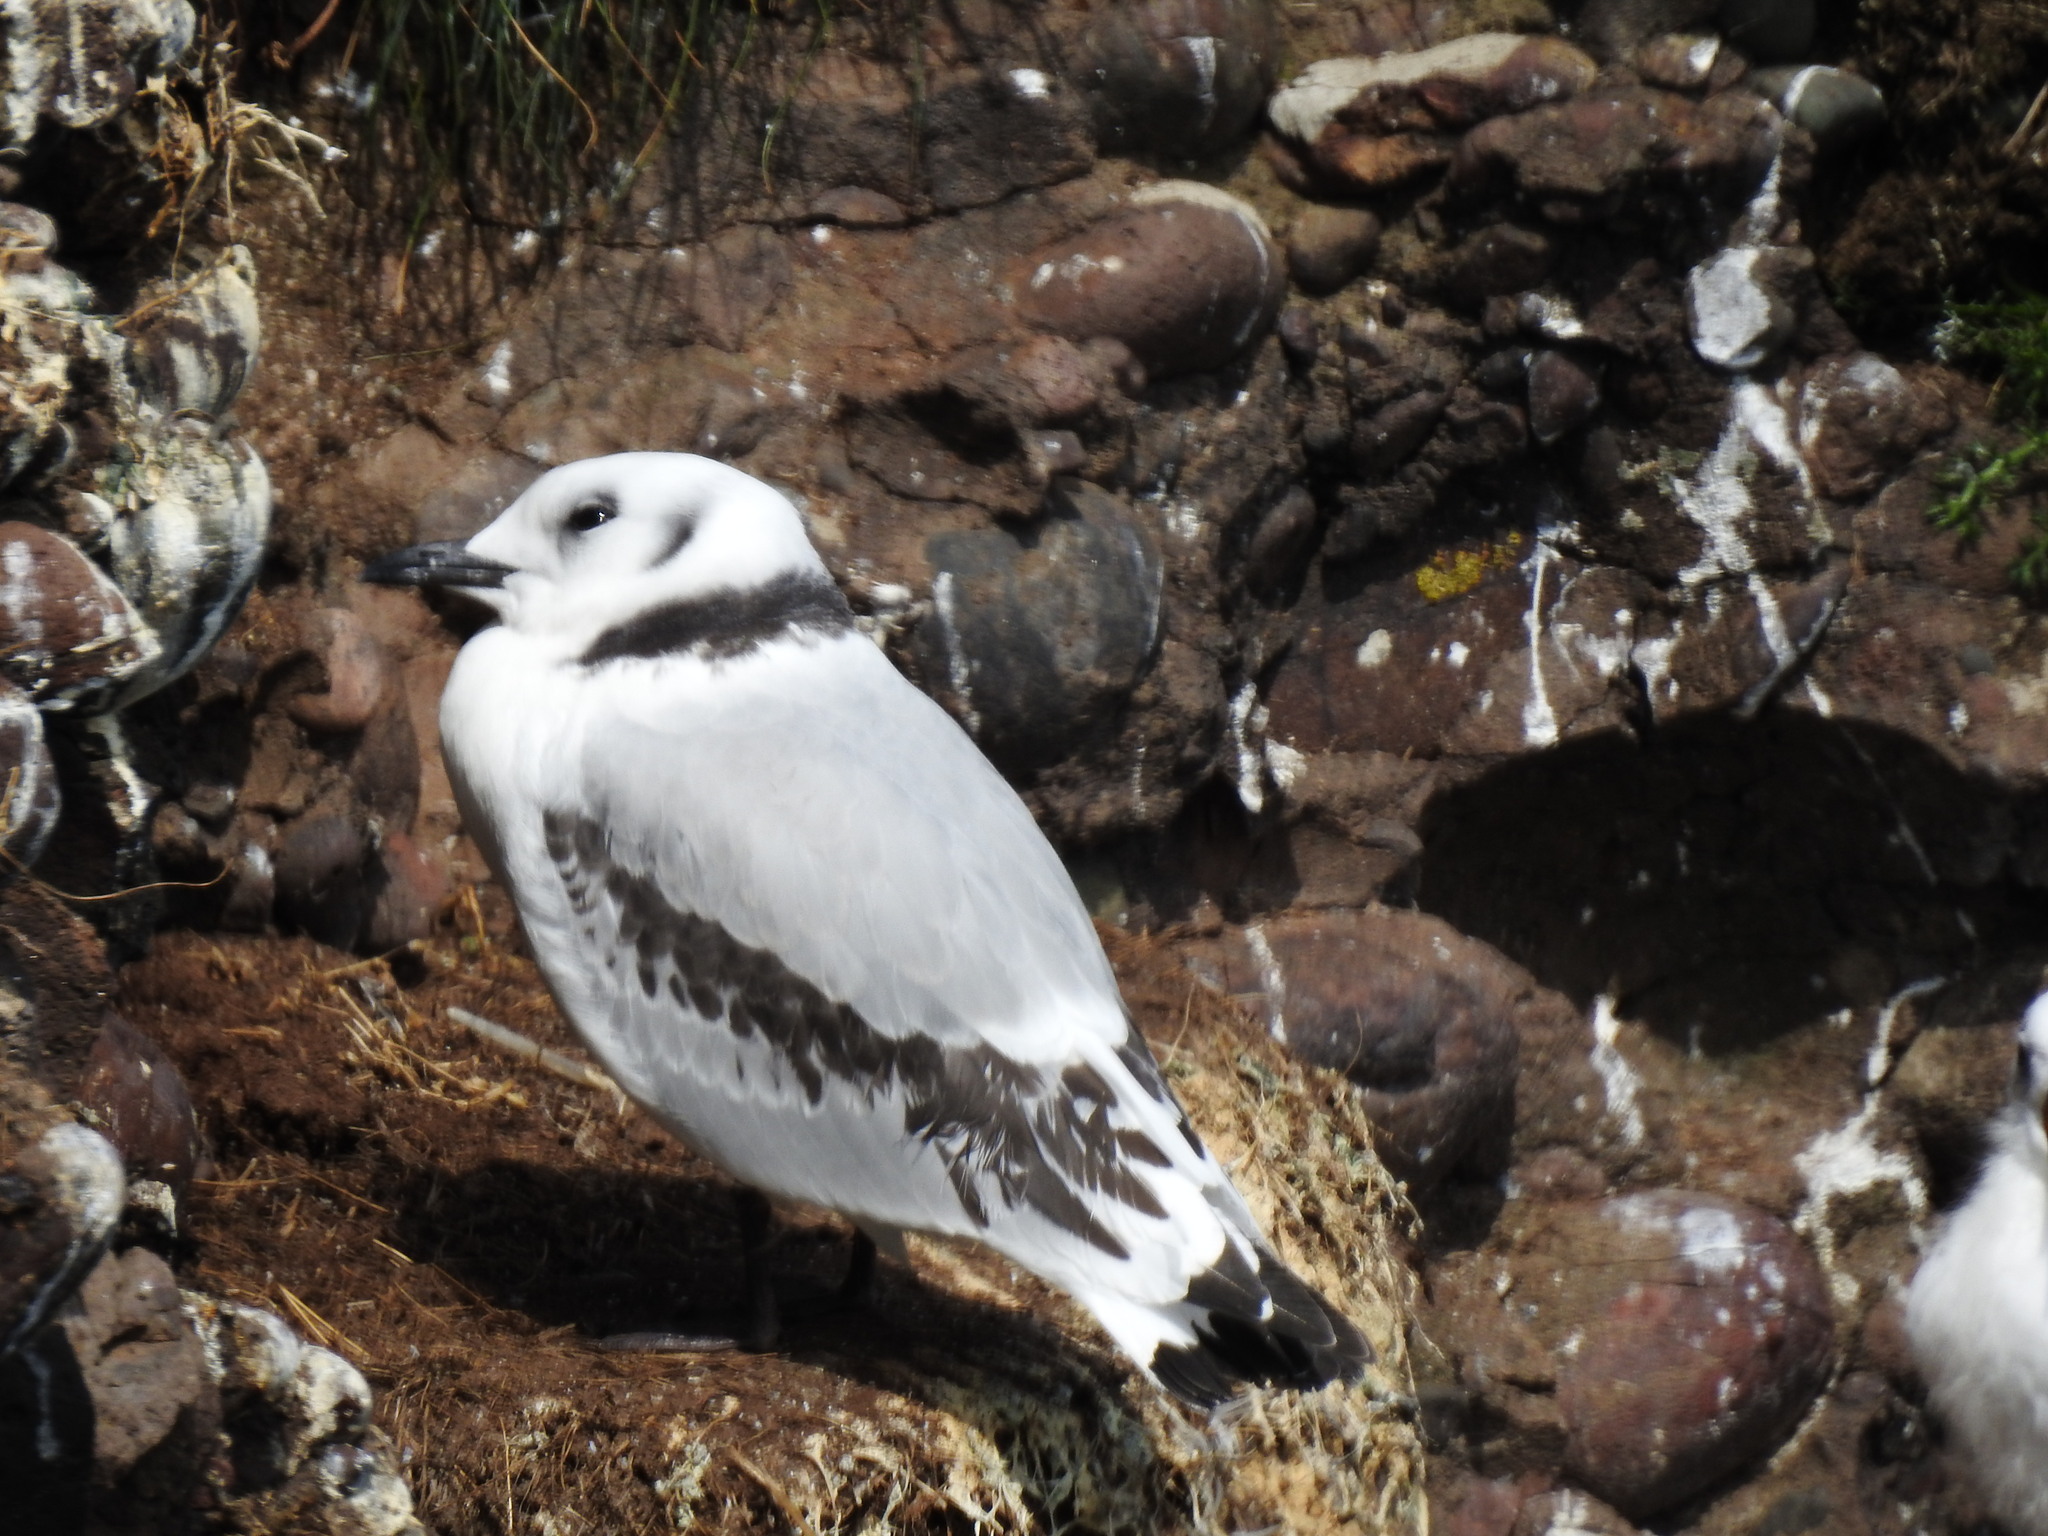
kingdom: Animalia
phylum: Chordata
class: Aves
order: Charadriiformes
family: Laridae
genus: Rissa
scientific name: Rissa tridactyla
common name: Black-legged kittiwake
